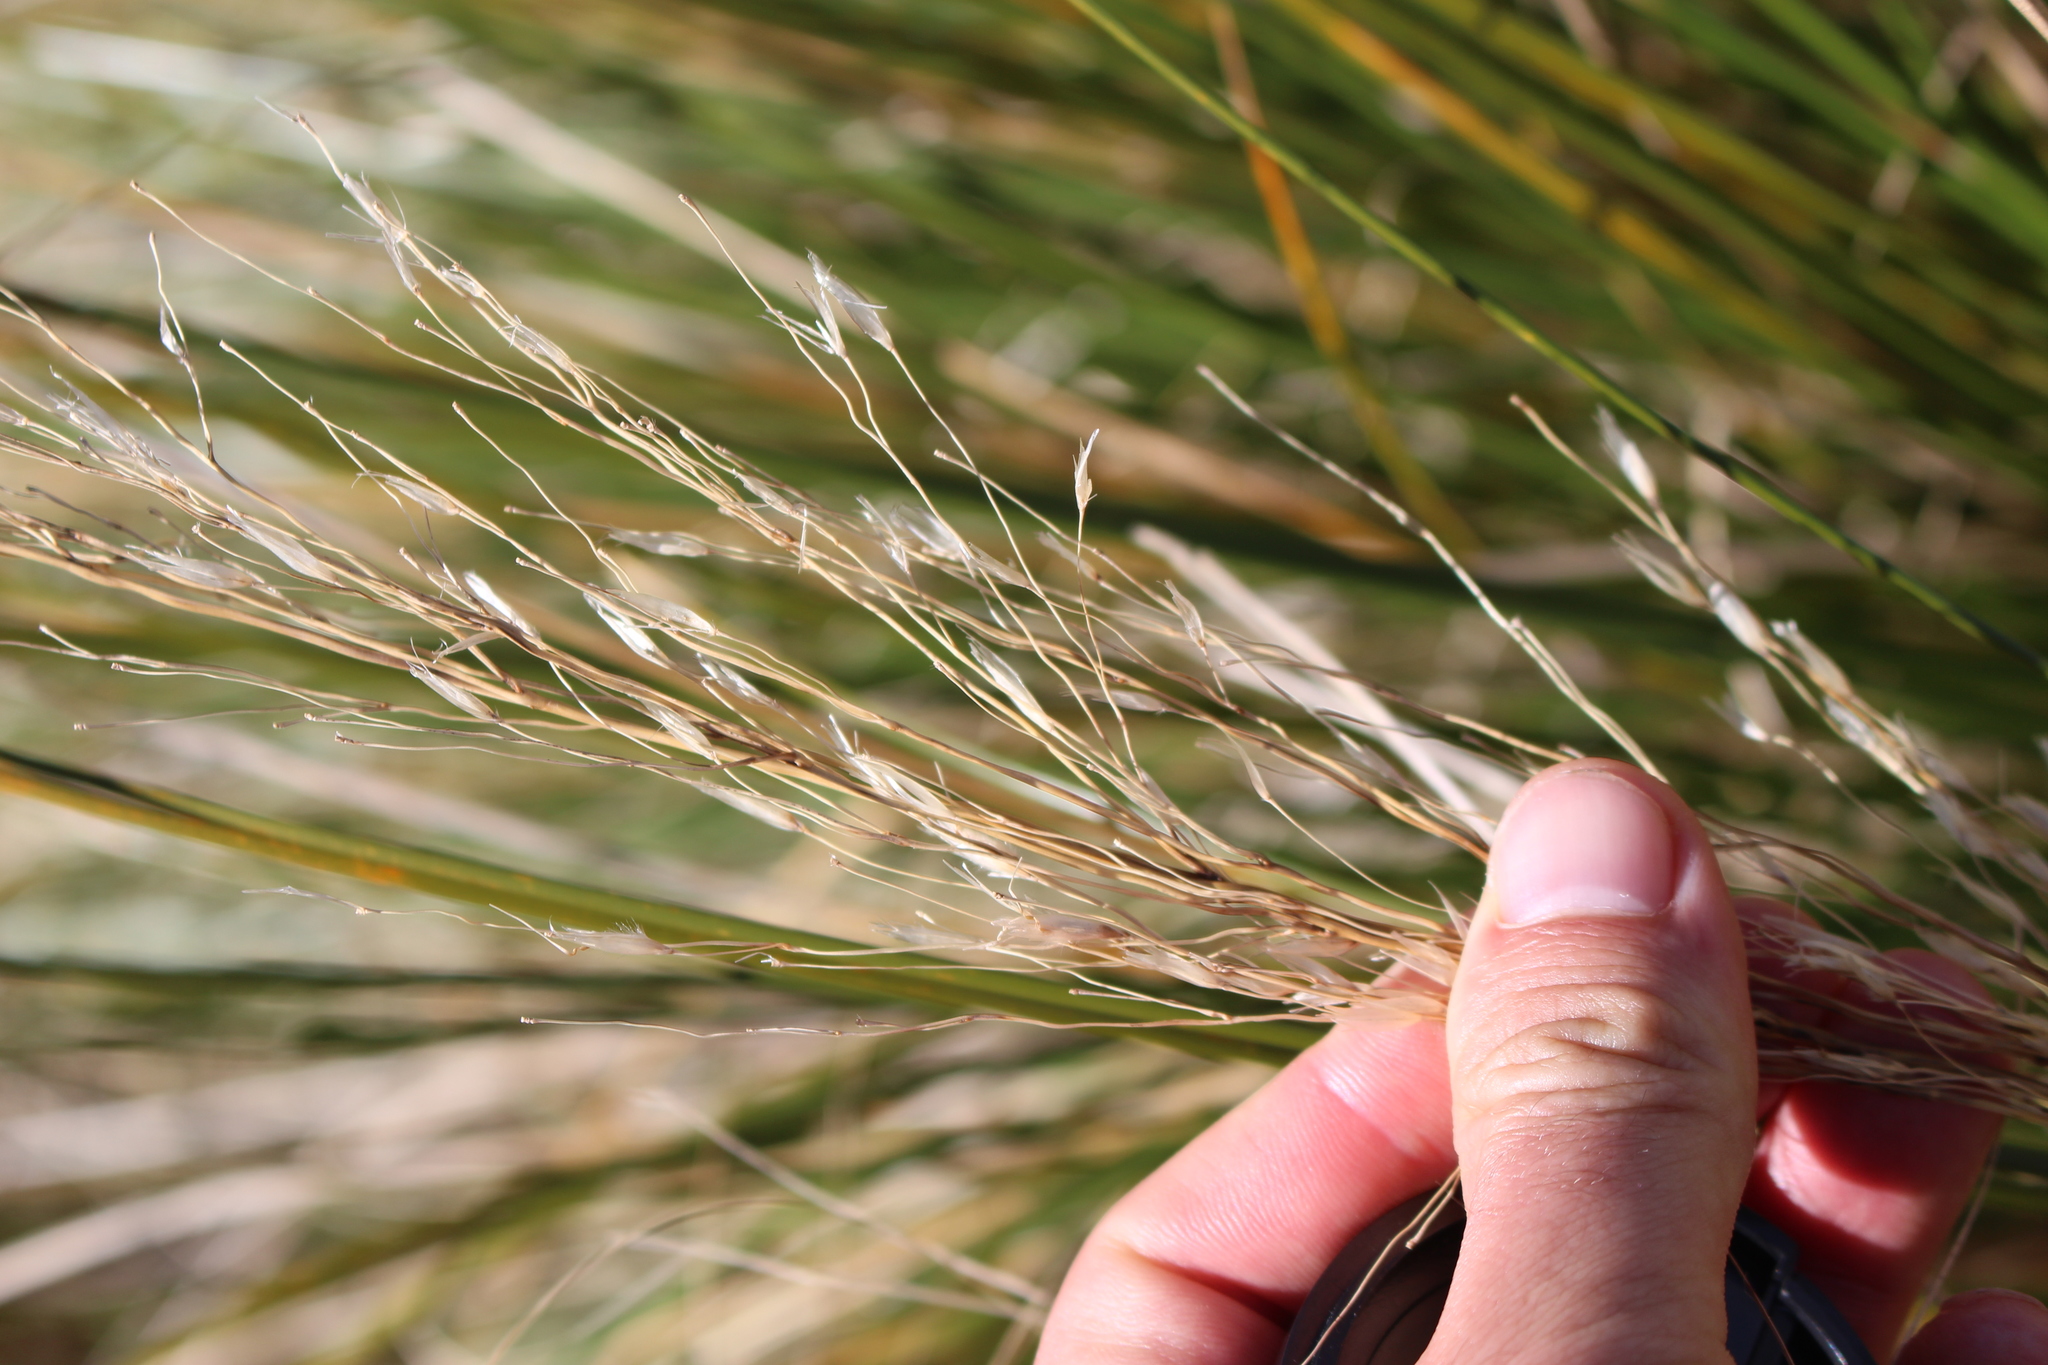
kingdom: Plantae
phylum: Tracheophyta
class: Liliopsida
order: Poales
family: Poaceae
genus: Chionochloa
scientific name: Chionochloa rigida
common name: Narrow leaved snow tussock
